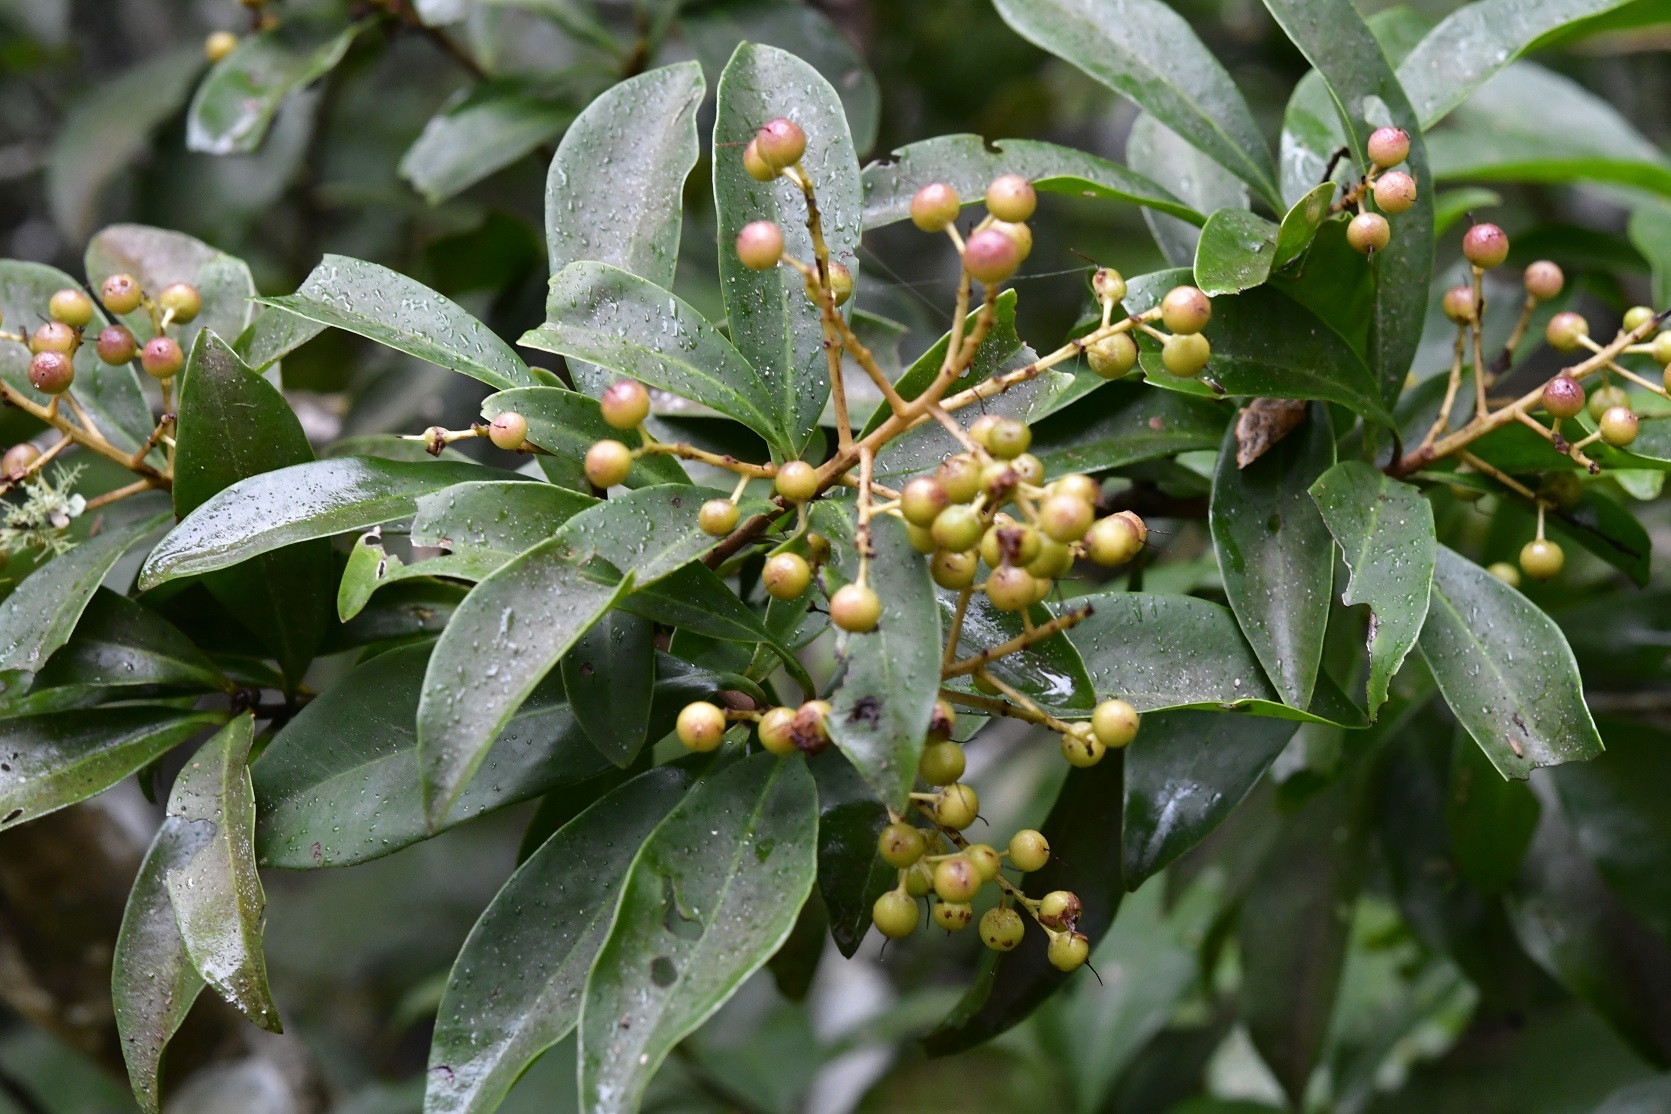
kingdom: Plantae
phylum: Tracheophyta
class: Magnoliopsida
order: Ericales
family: Primulaceae
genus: Ardisia
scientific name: Ardisia paschalis
